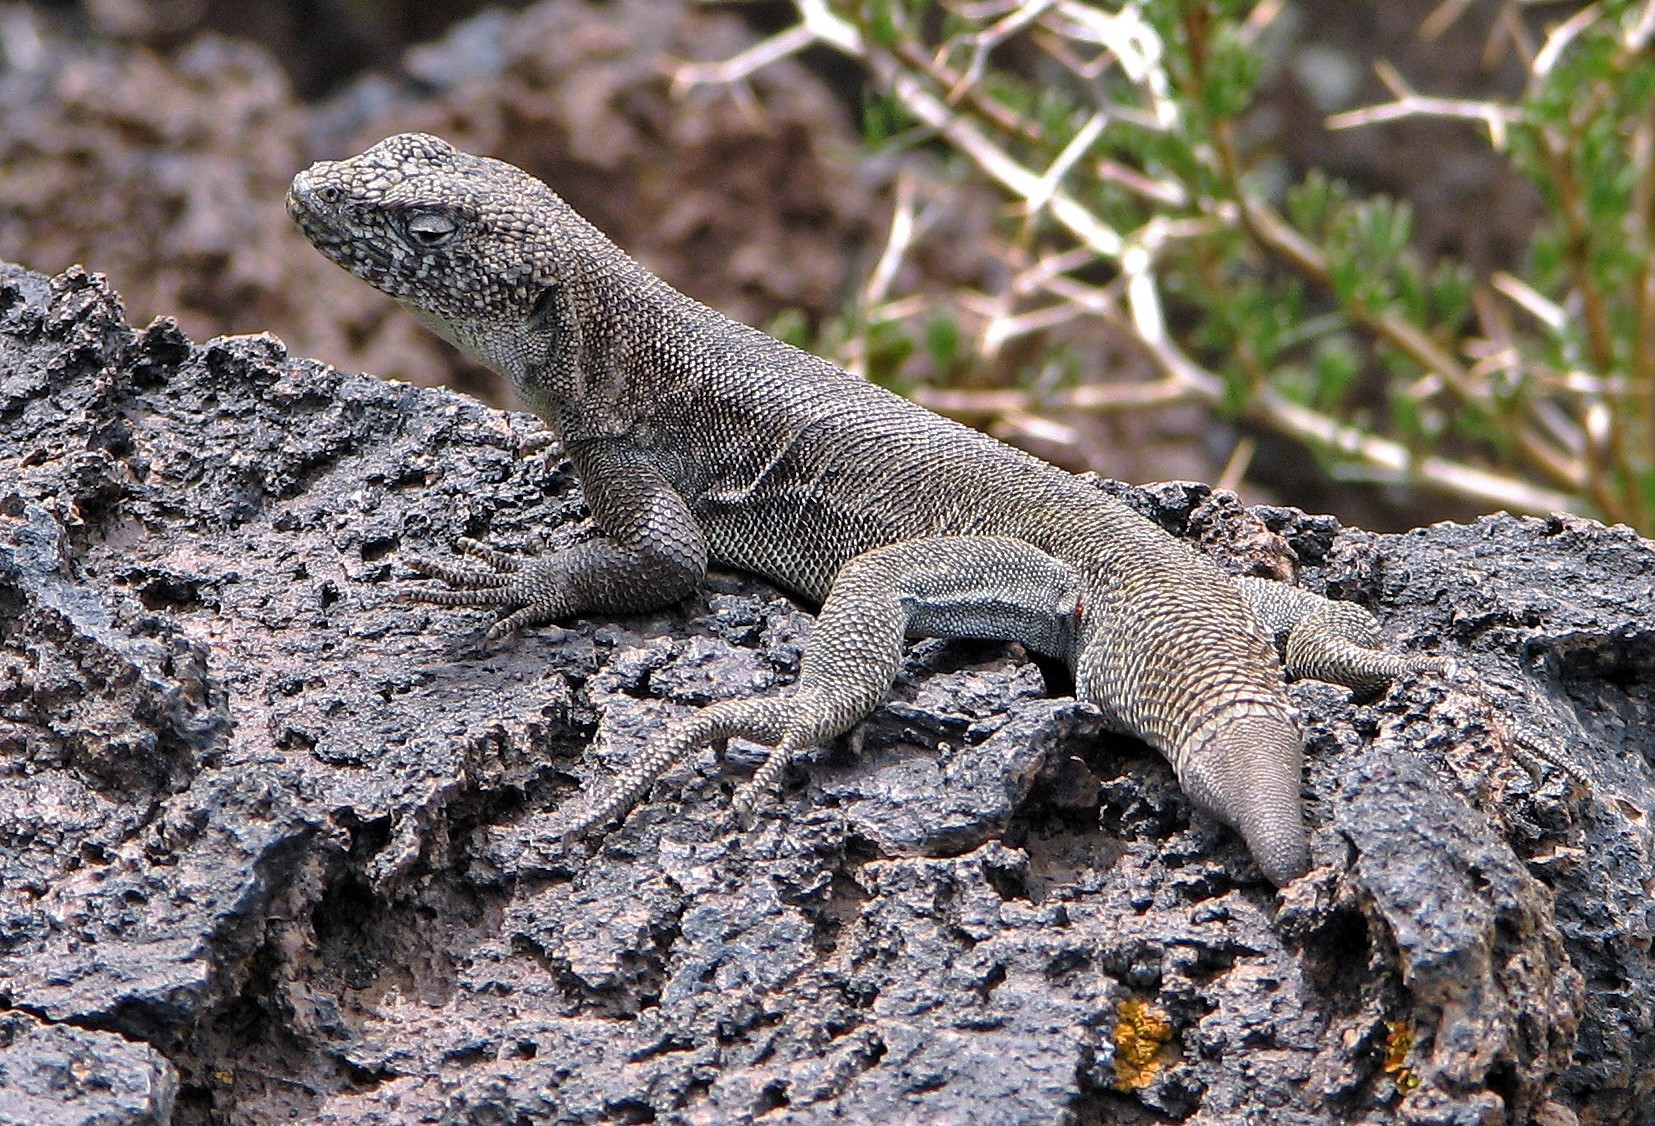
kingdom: Animalia
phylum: Chordata
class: Squamata
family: Liolaemidae
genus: Liolaemus
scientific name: Liolaemus austromendocinus
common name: Austromendocino tree iguana
